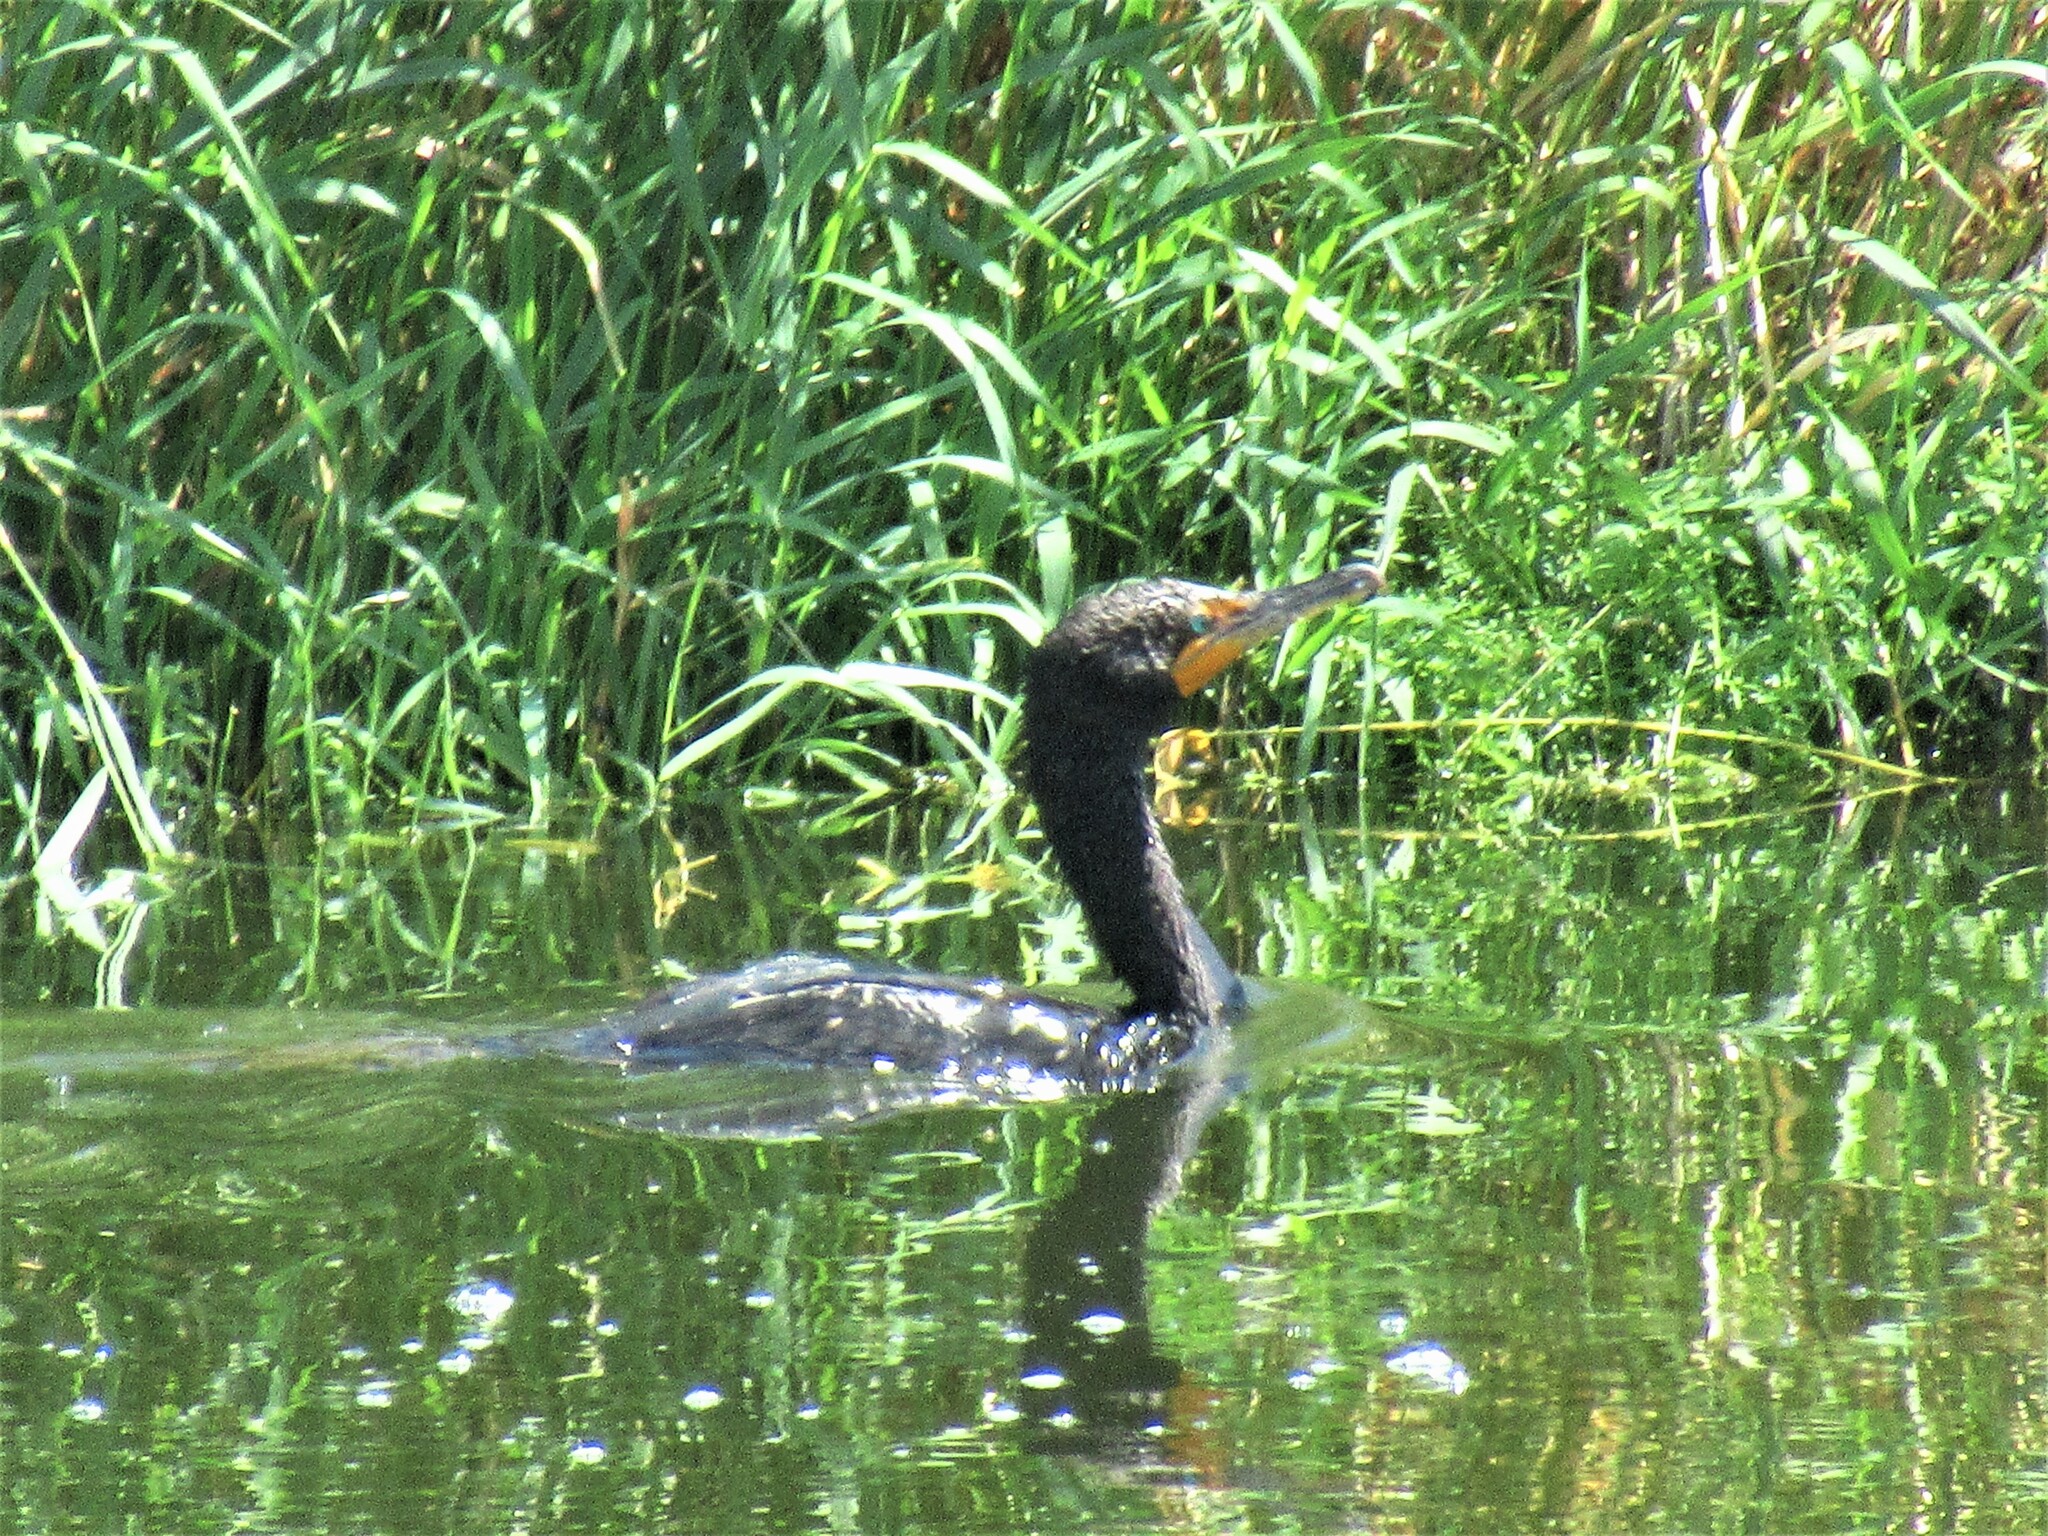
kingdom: Animalia
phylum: Chordata
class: Aves
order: Suliformes
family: Phalacrocoracidae
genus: Phalacrocorax
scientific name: Phalacrocorax auritus
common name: Double-crested cormorant
